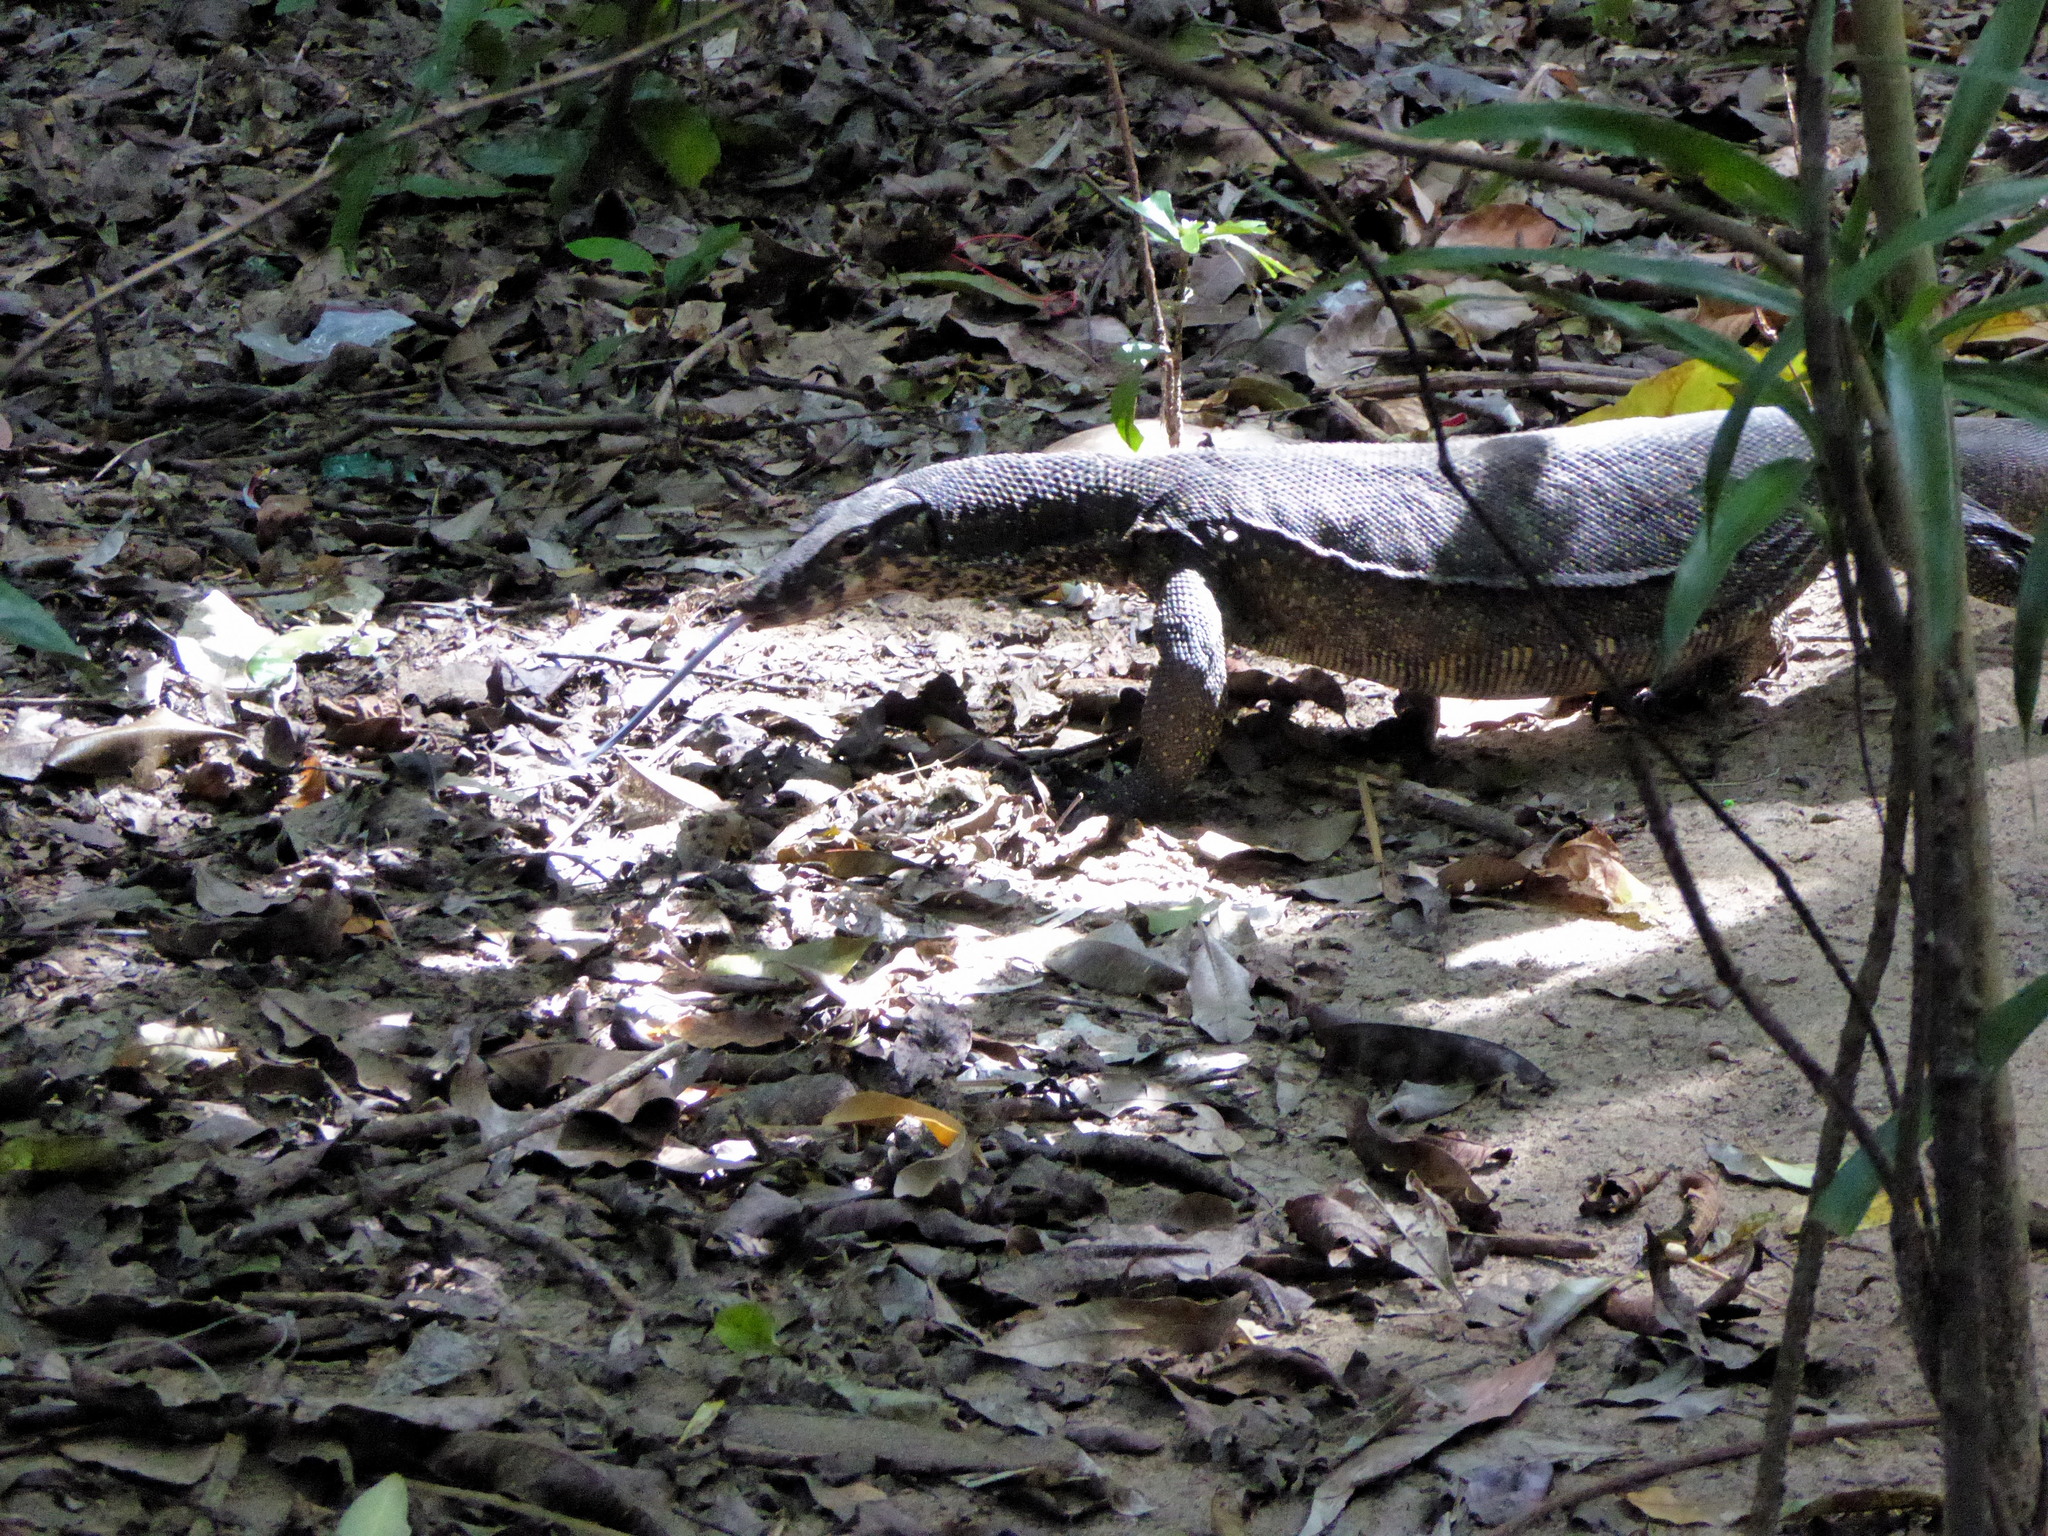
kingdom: Animalia
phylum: Chordata
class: Squamata
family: Varanidae
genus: Varanus
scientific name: Varanus palawanensis
